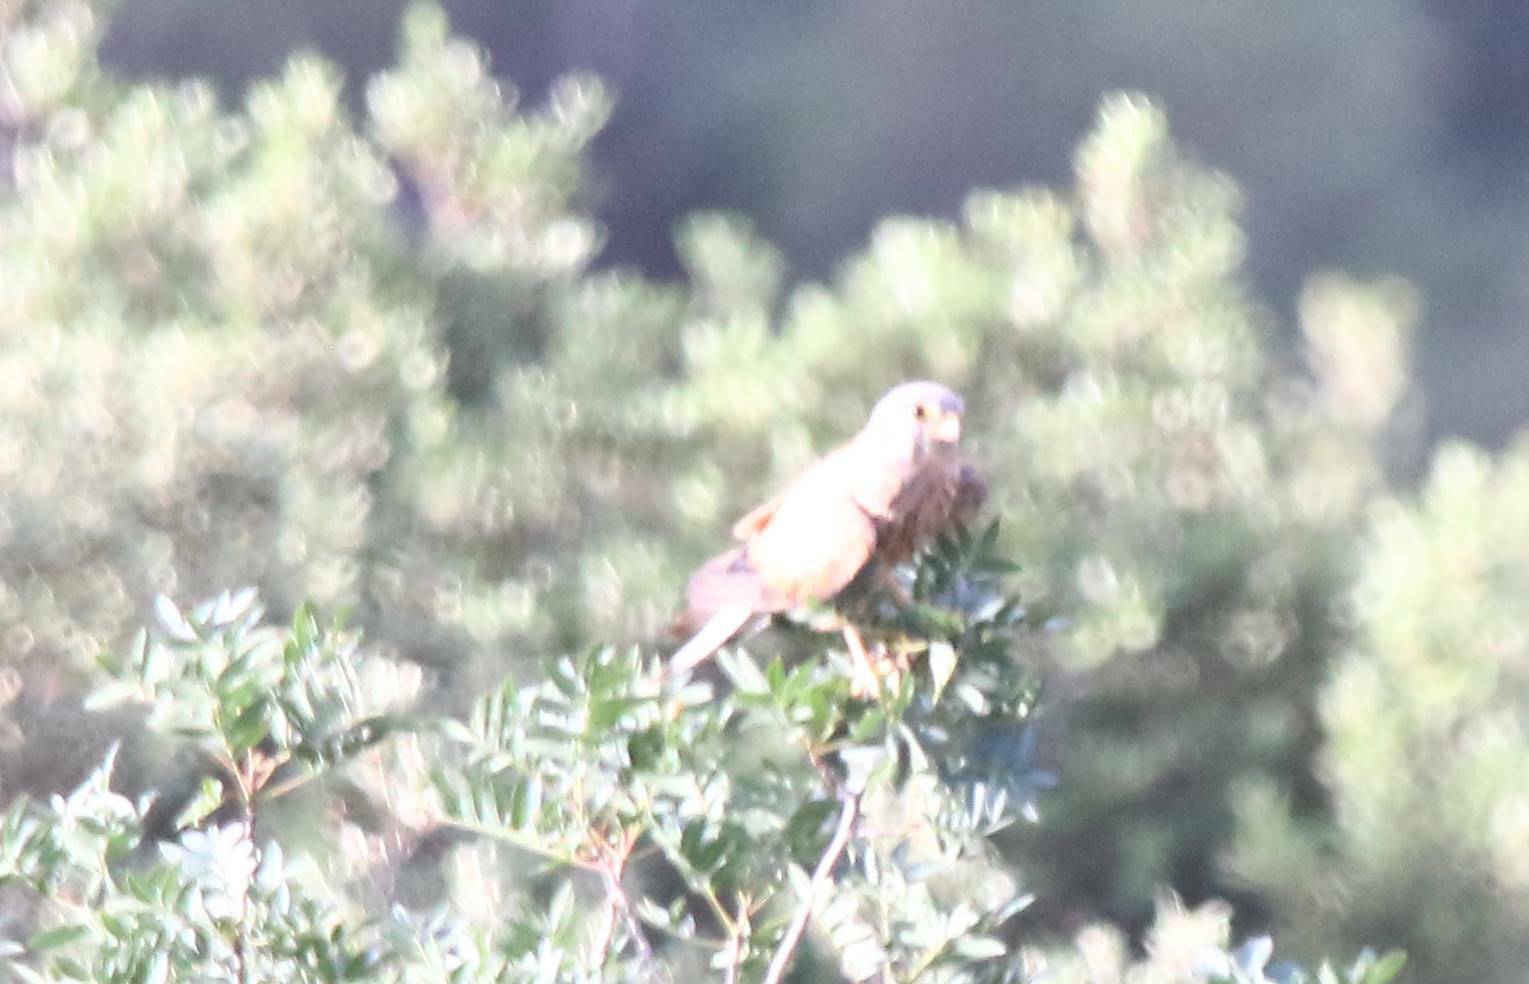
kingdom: Animalia
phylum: Chordata
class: Aves
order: Falconiformes
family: Falconidae
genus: Falco
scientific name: Falco tinnunculus
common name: Common kestrel
